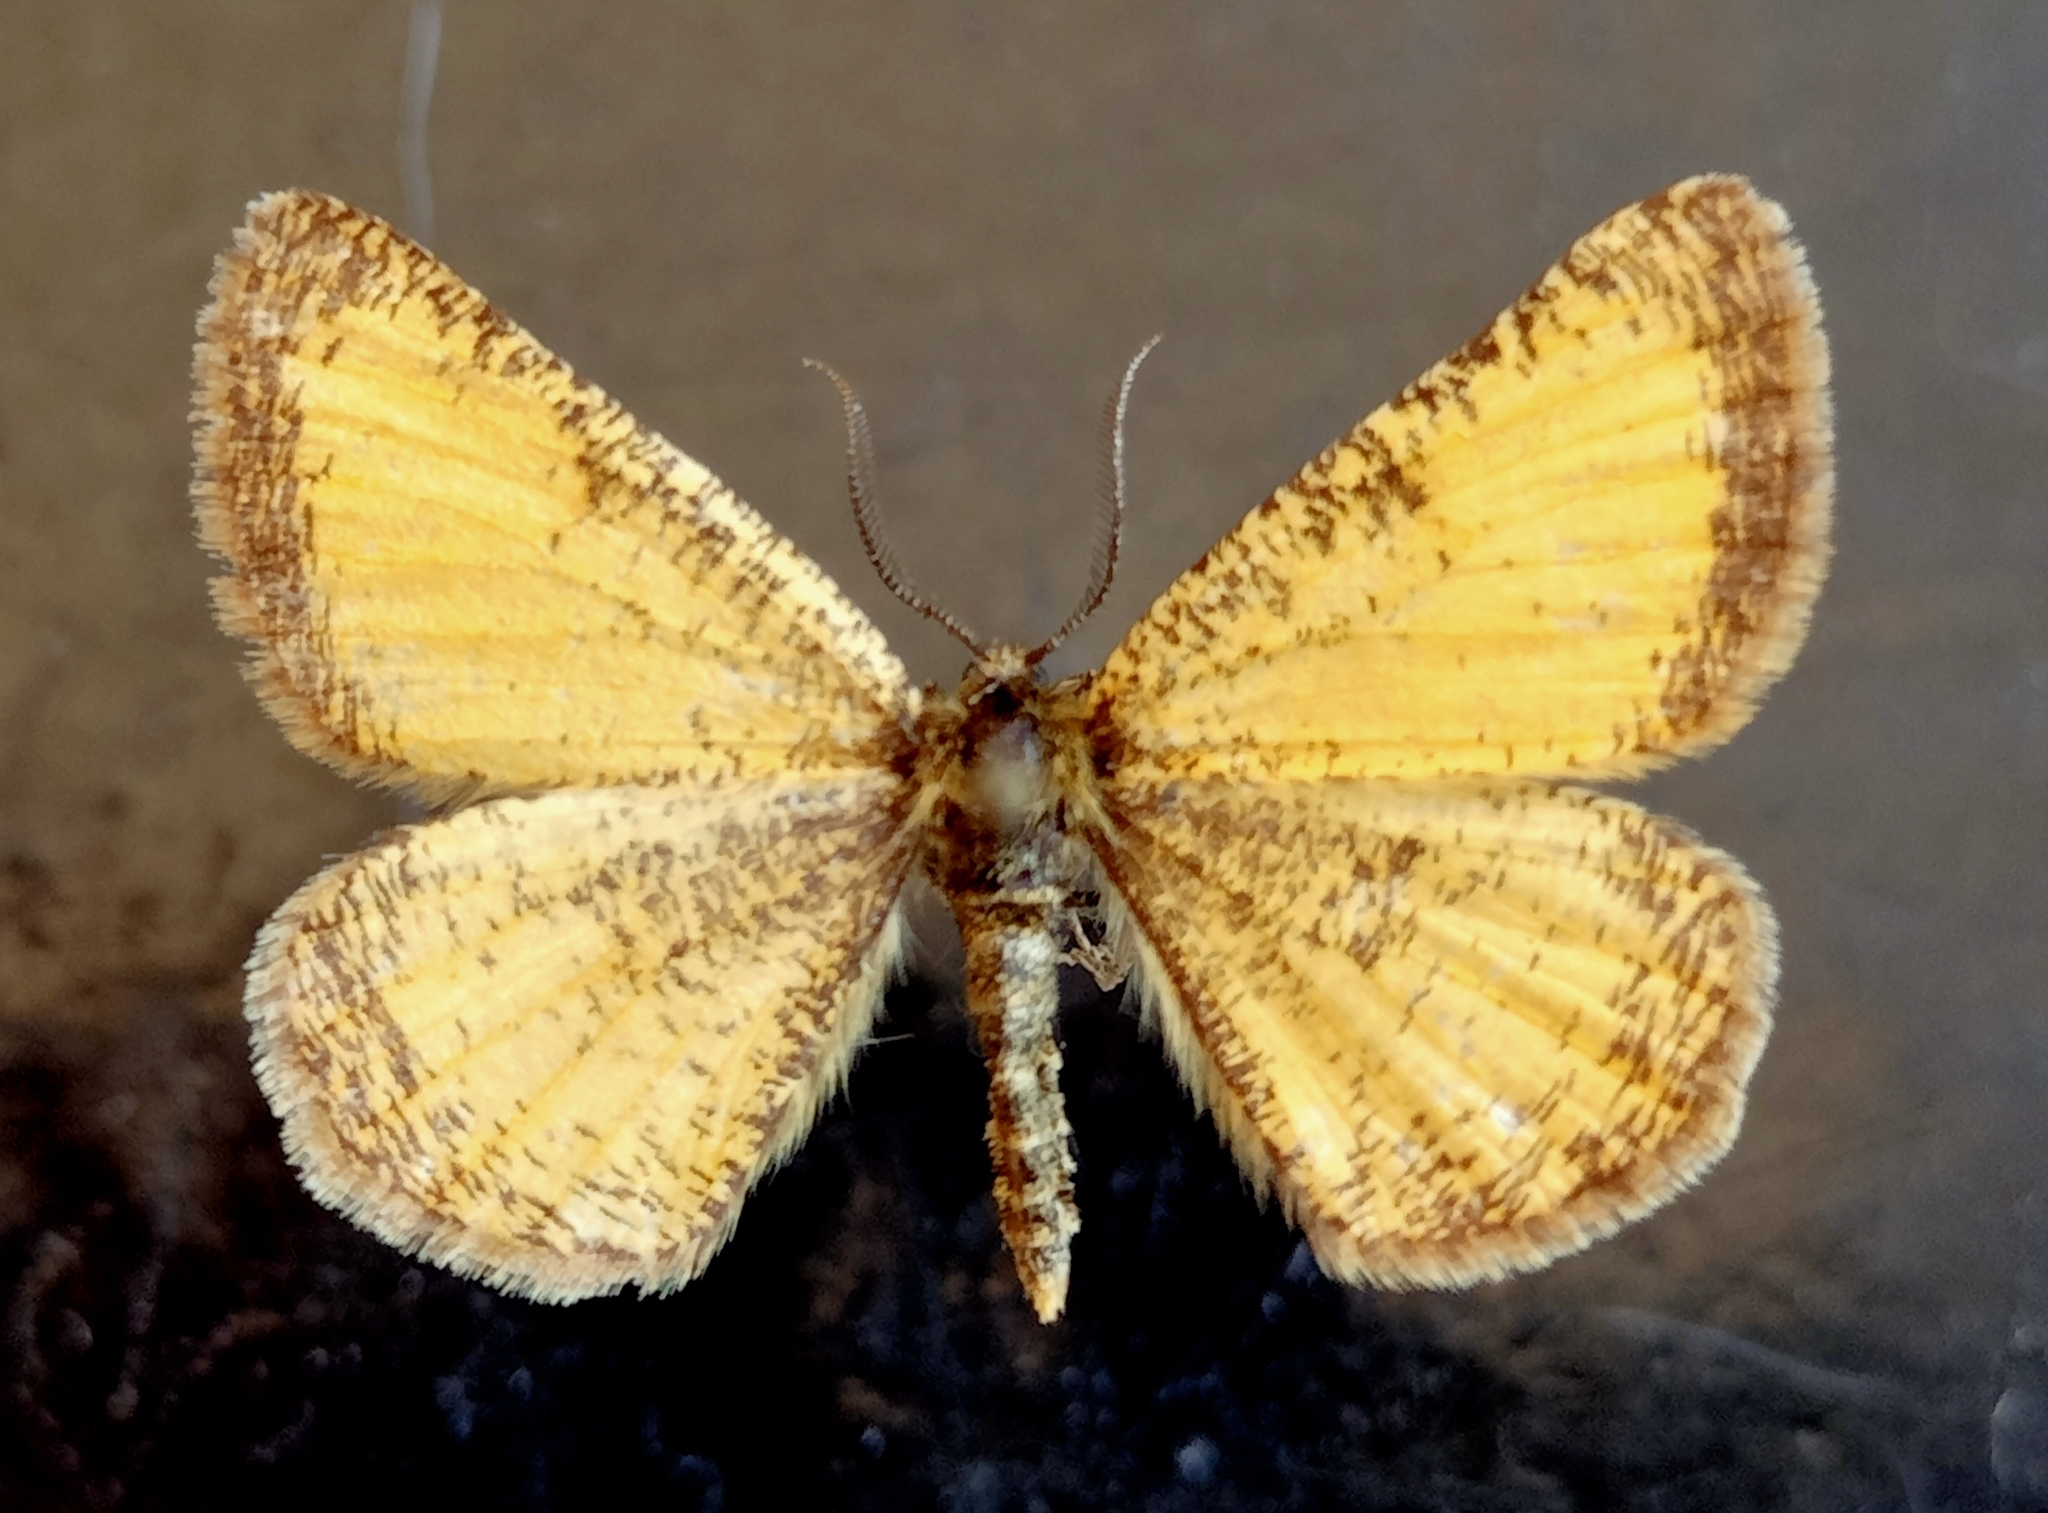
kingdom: Animalia
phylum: Arthropoda
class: Insecta
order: Lepidoptera
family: Geometridae
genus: Isturgia
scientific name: Isturgia roraria
